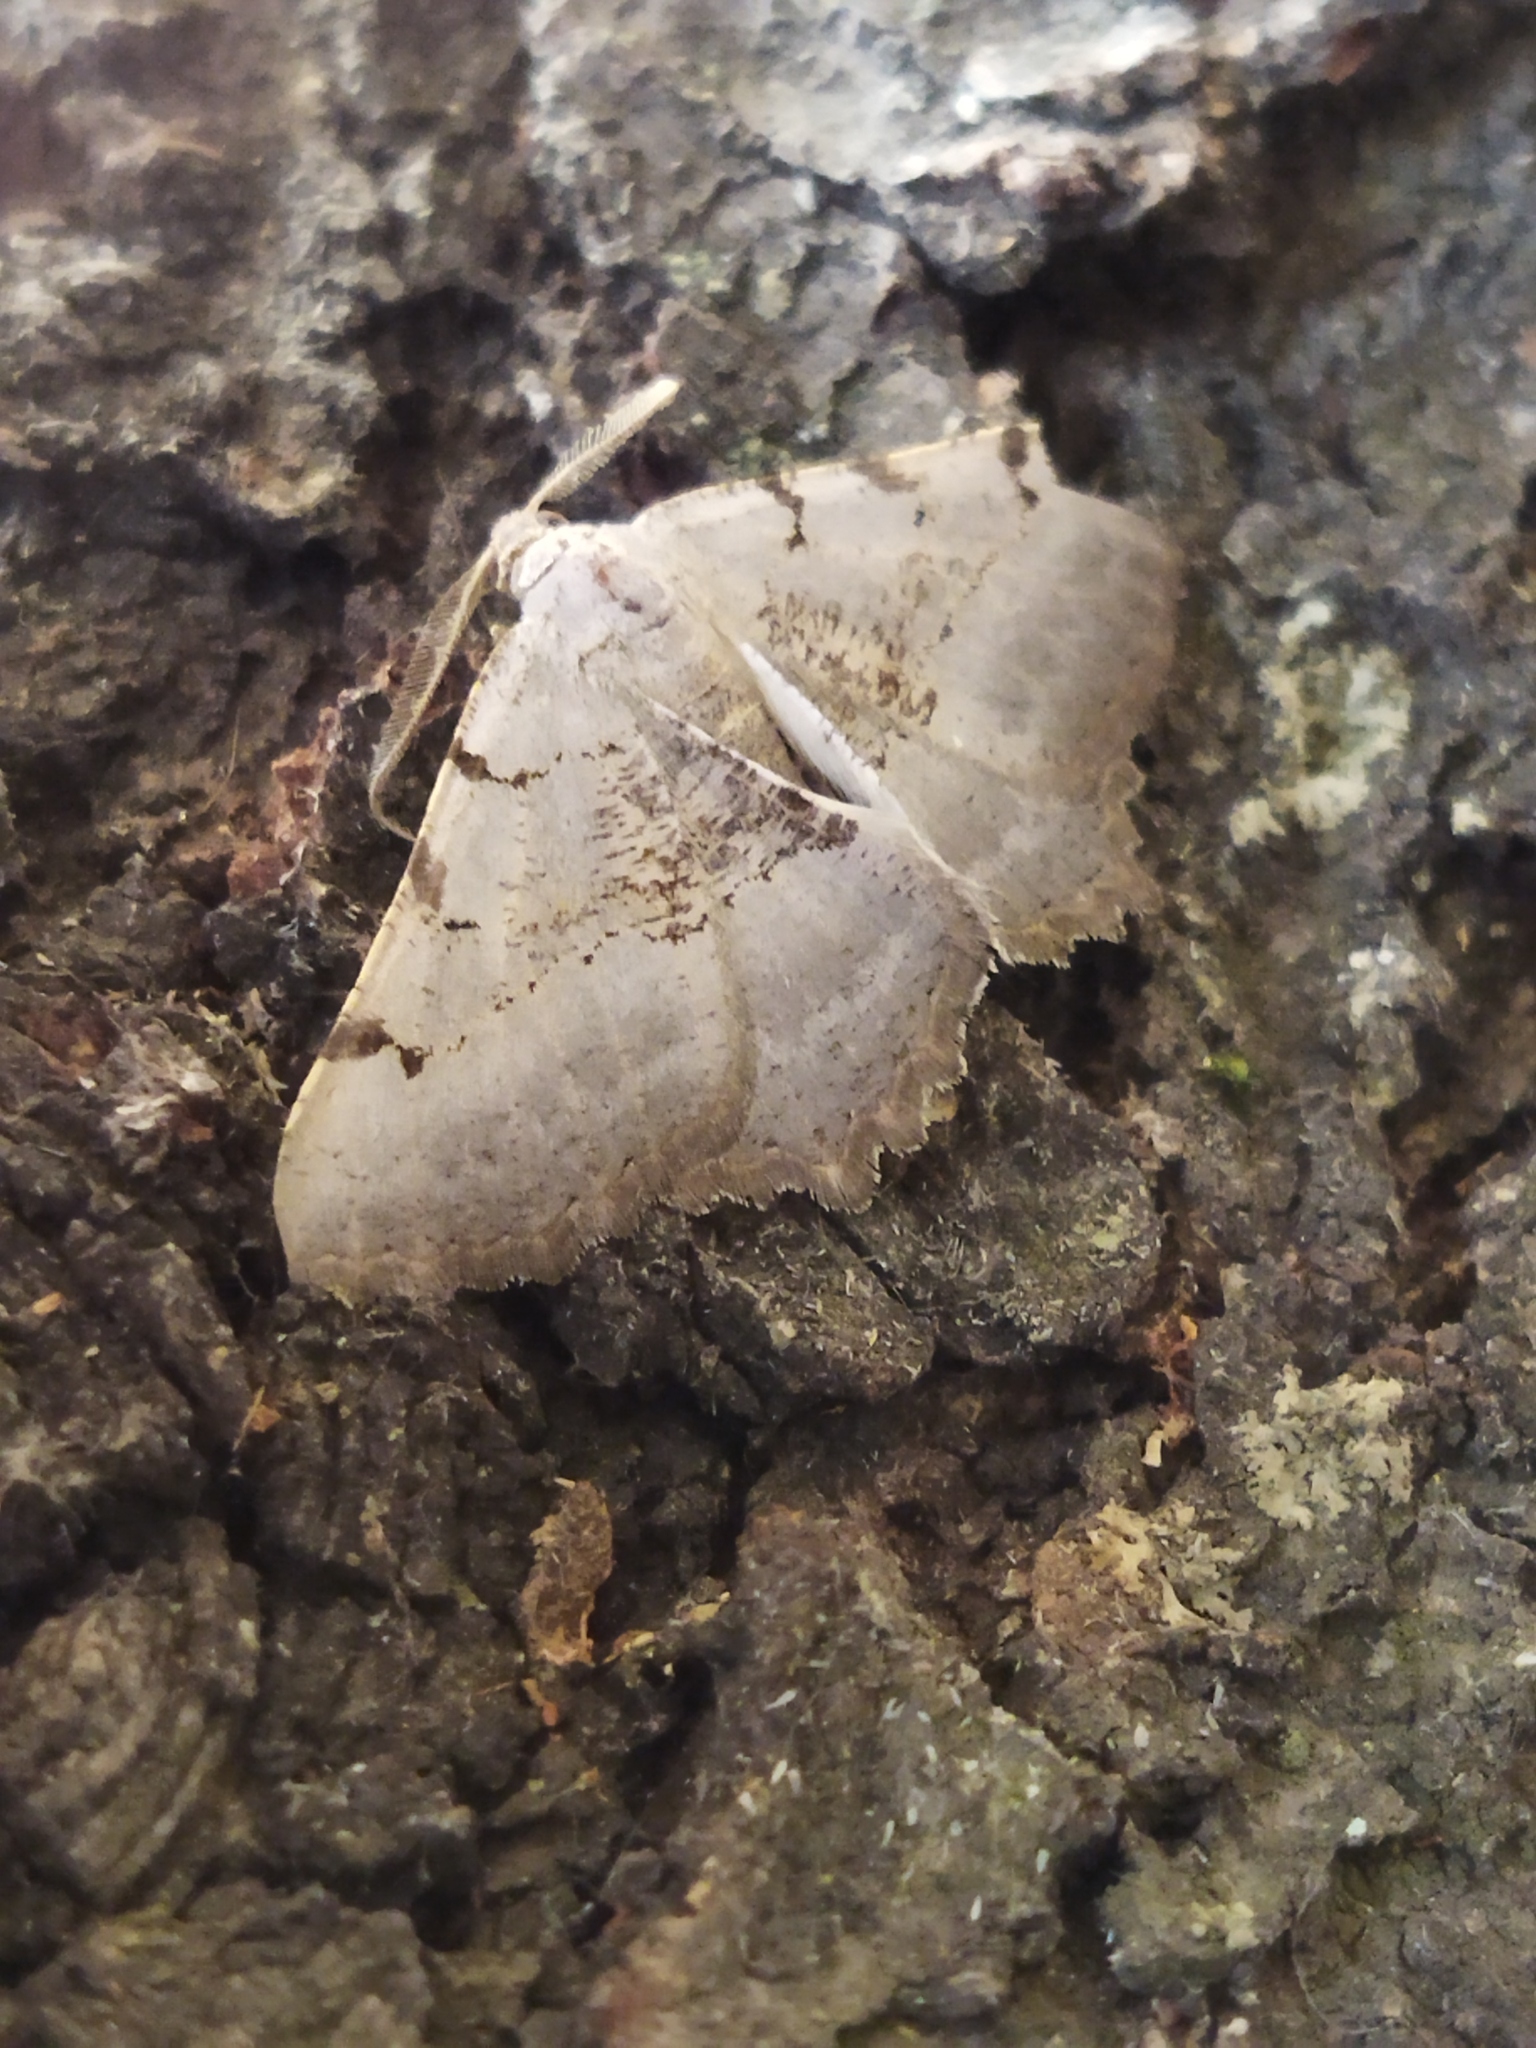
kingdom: Animalia
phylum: Arthropoda
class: Insecta
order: Lepidoptera
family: Geometridae
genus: Neognopharmia
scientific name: Neognopharmia stevenaria
